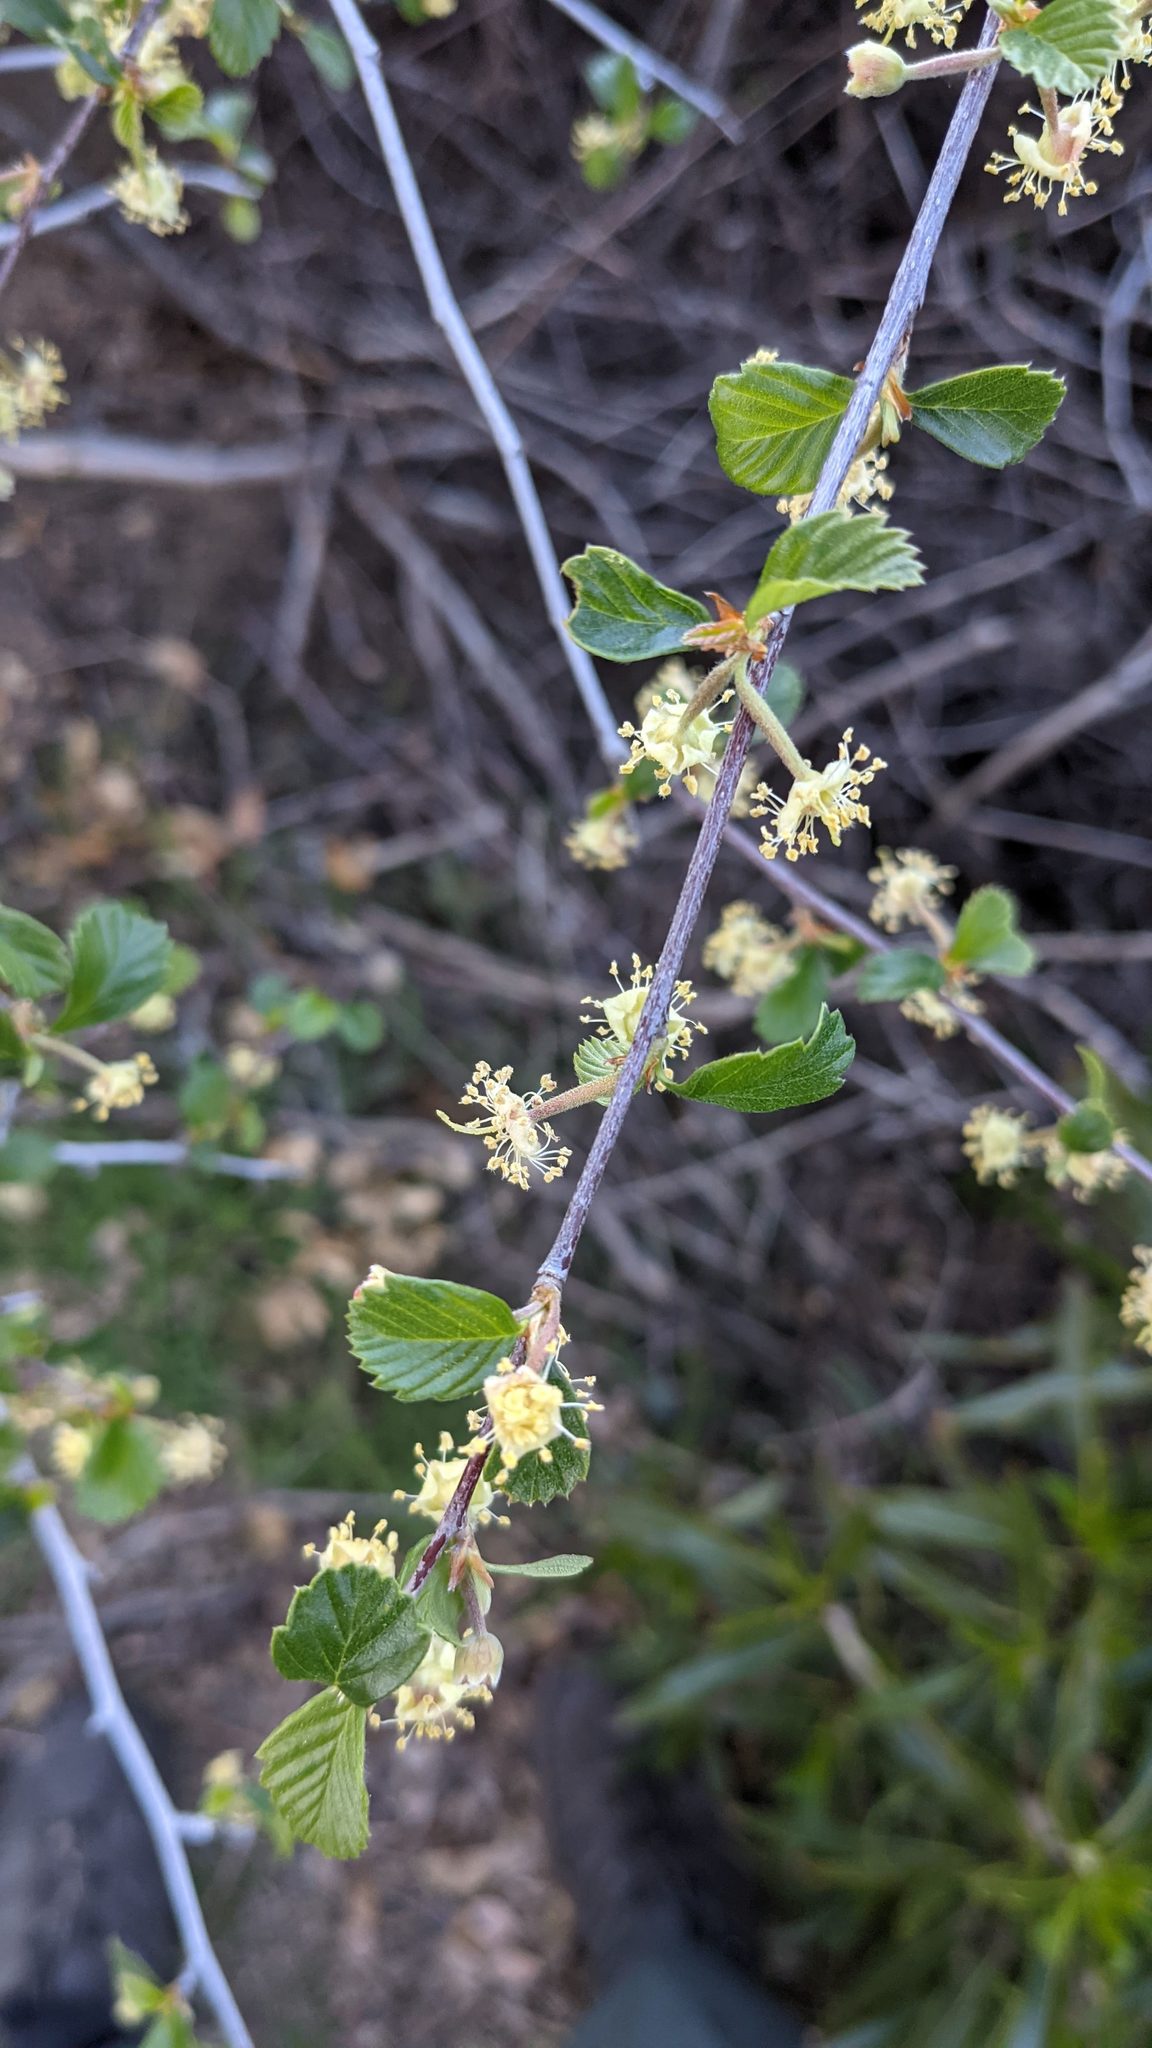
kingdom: Plantae
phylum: Tracheophyta
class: Magnoliopsida
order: Rosales
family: Rosaceae
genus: Cercocarpus
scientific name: Cercocarpus betuloides
